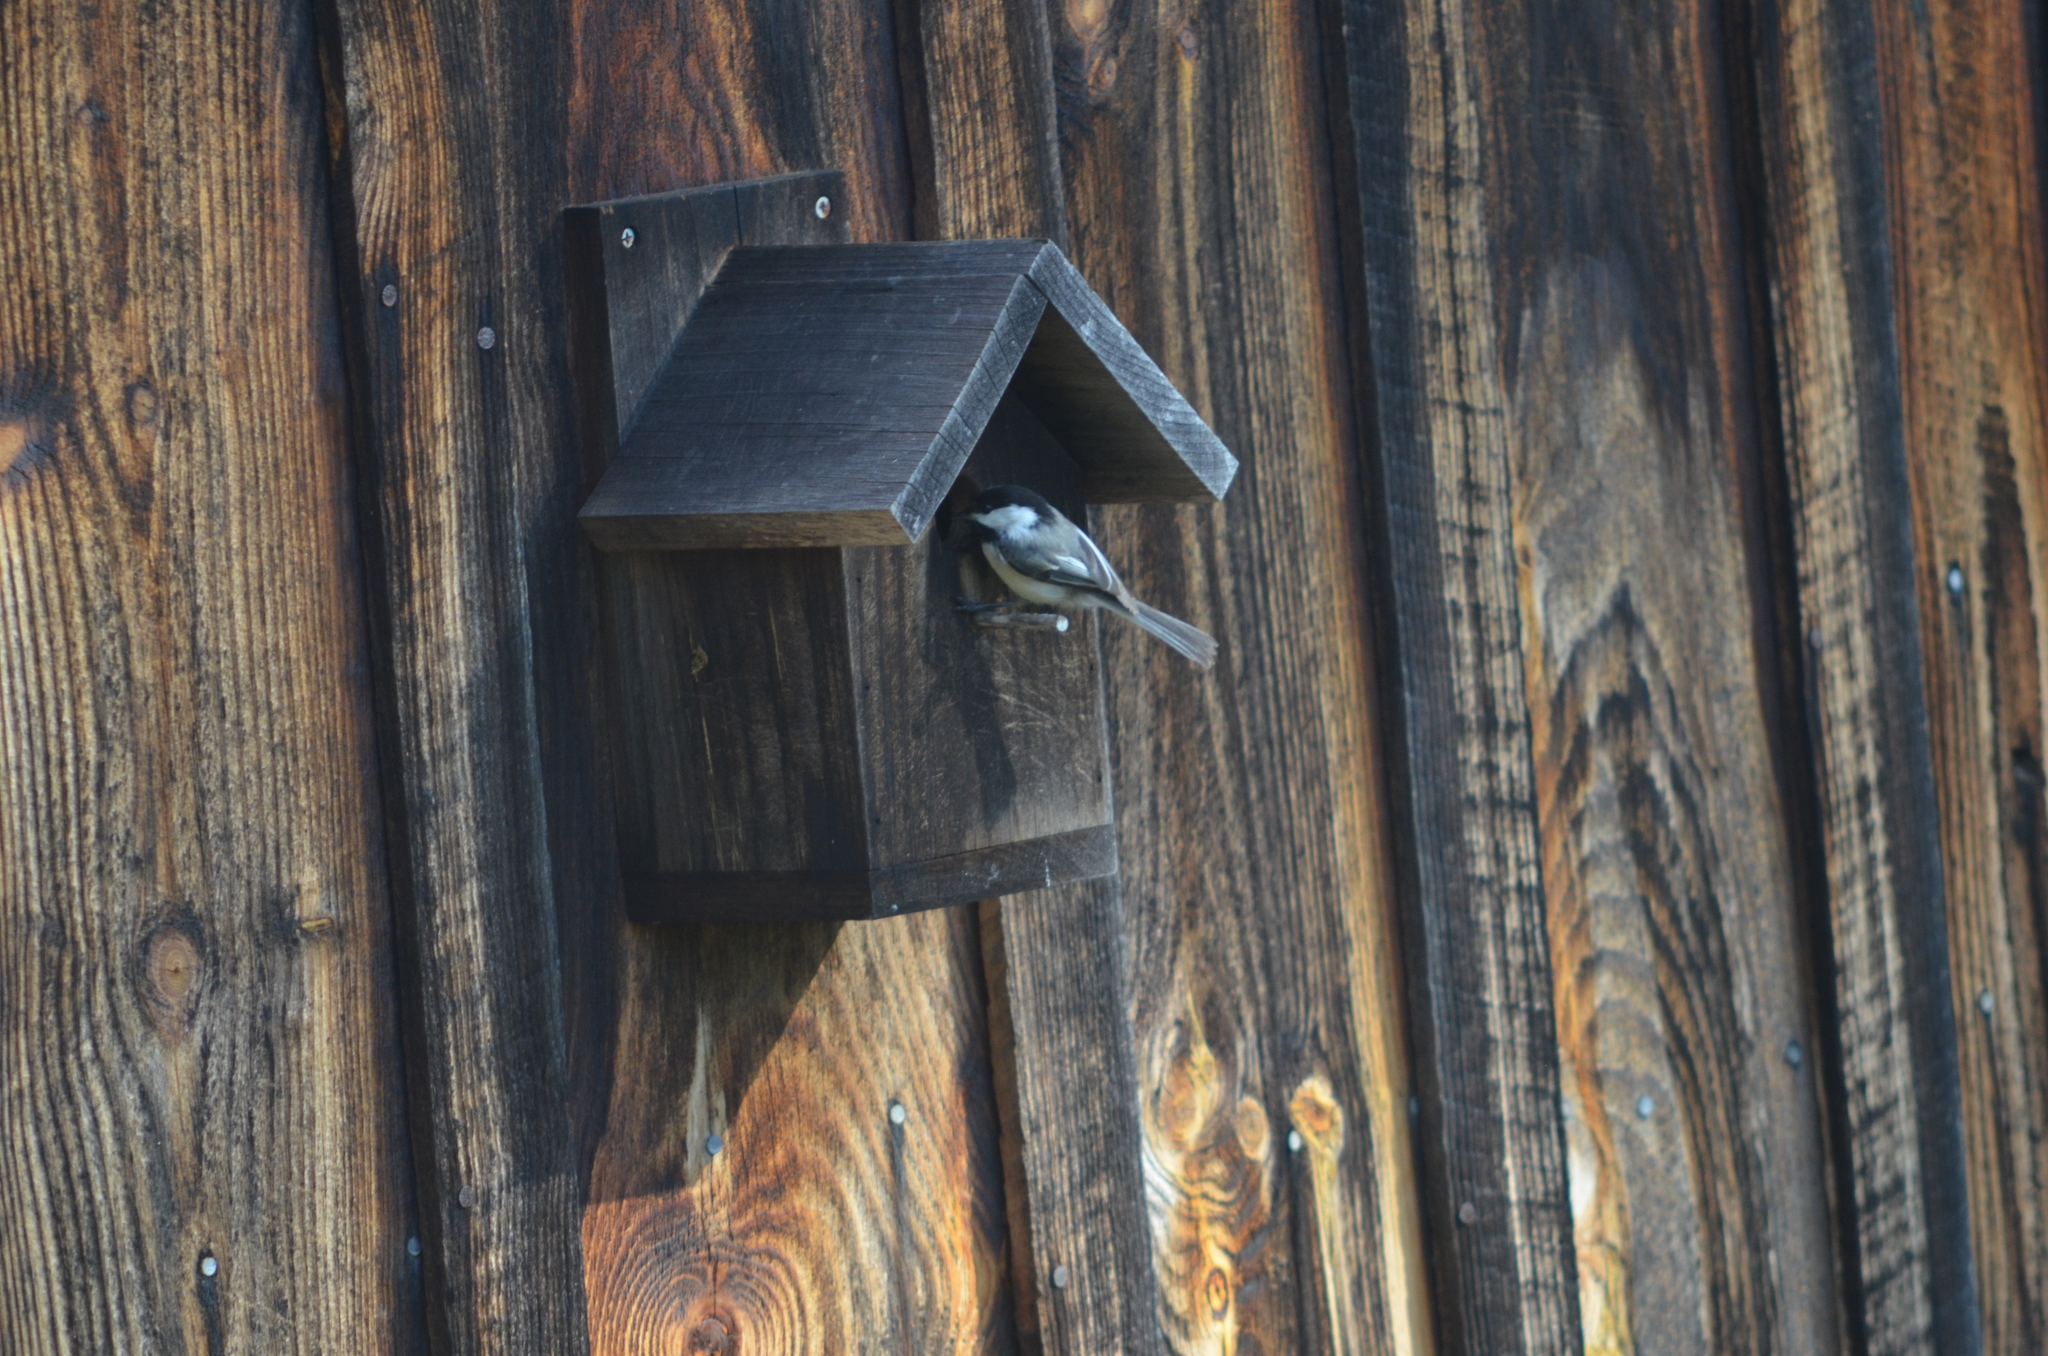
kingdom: Animalia
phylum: Chordata
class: Aves
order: Passeriformes
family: Paridae
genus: Poecile
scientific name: Poecile atricapillus
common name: Black-capped chickadee
